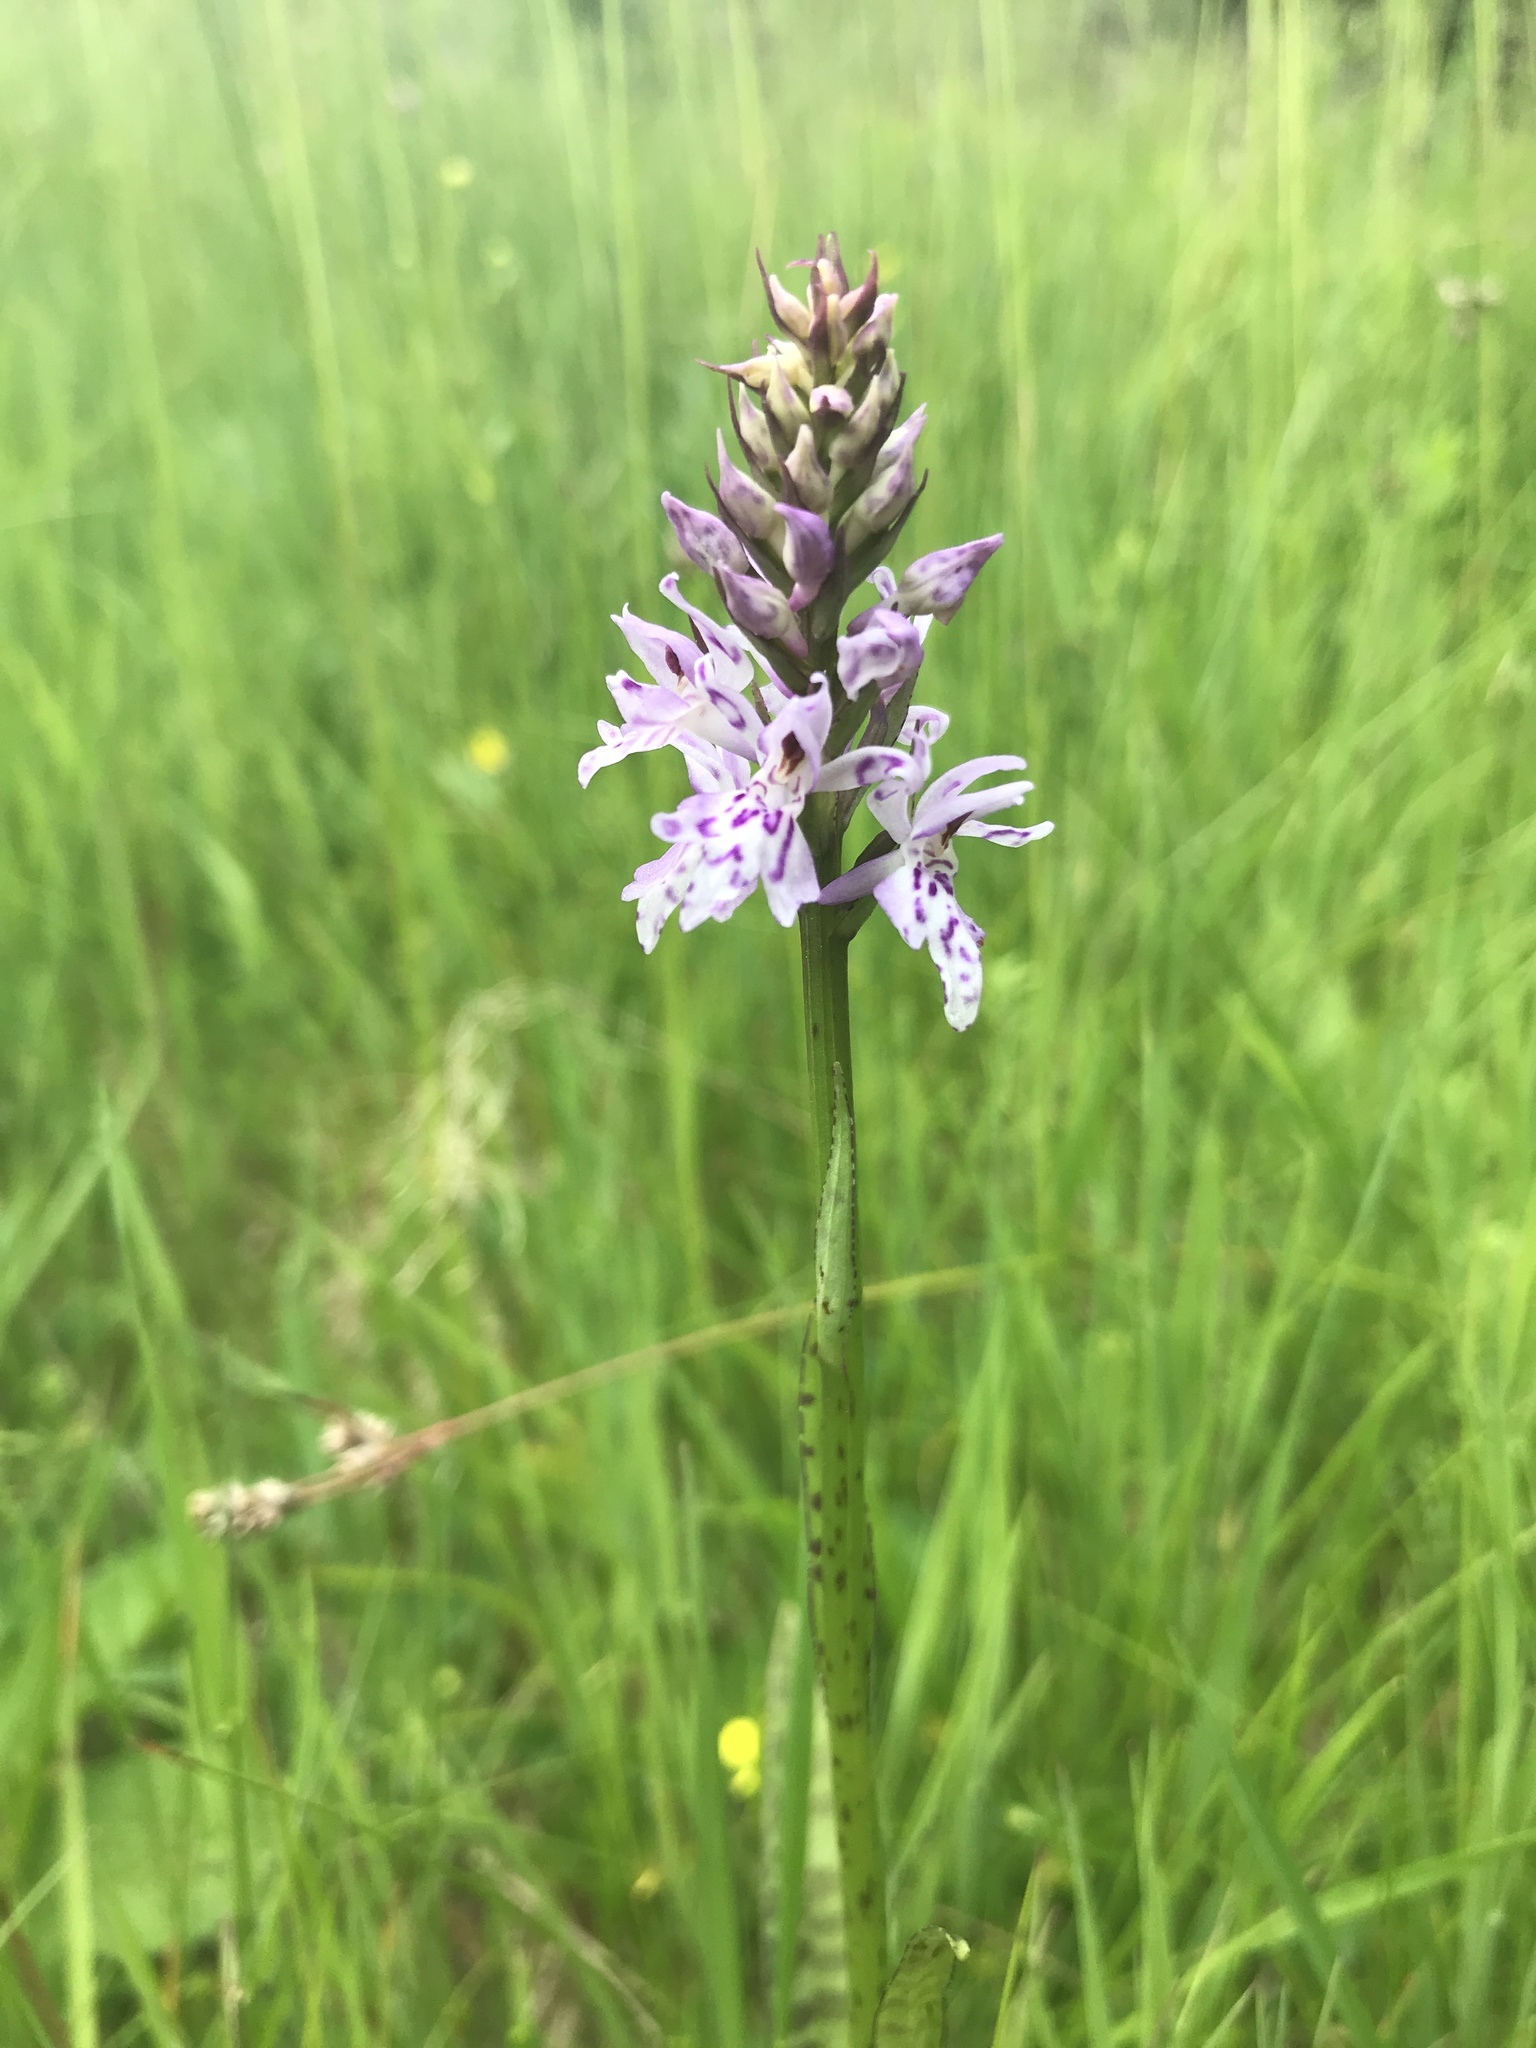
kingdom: Plantae
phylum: Tracheophyta
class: Liliopsida
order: Asparagales
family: Orchidaceae
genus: Dactylorhiza
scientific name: Dactylorhiza maculata
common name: Heath spotted-orchid
